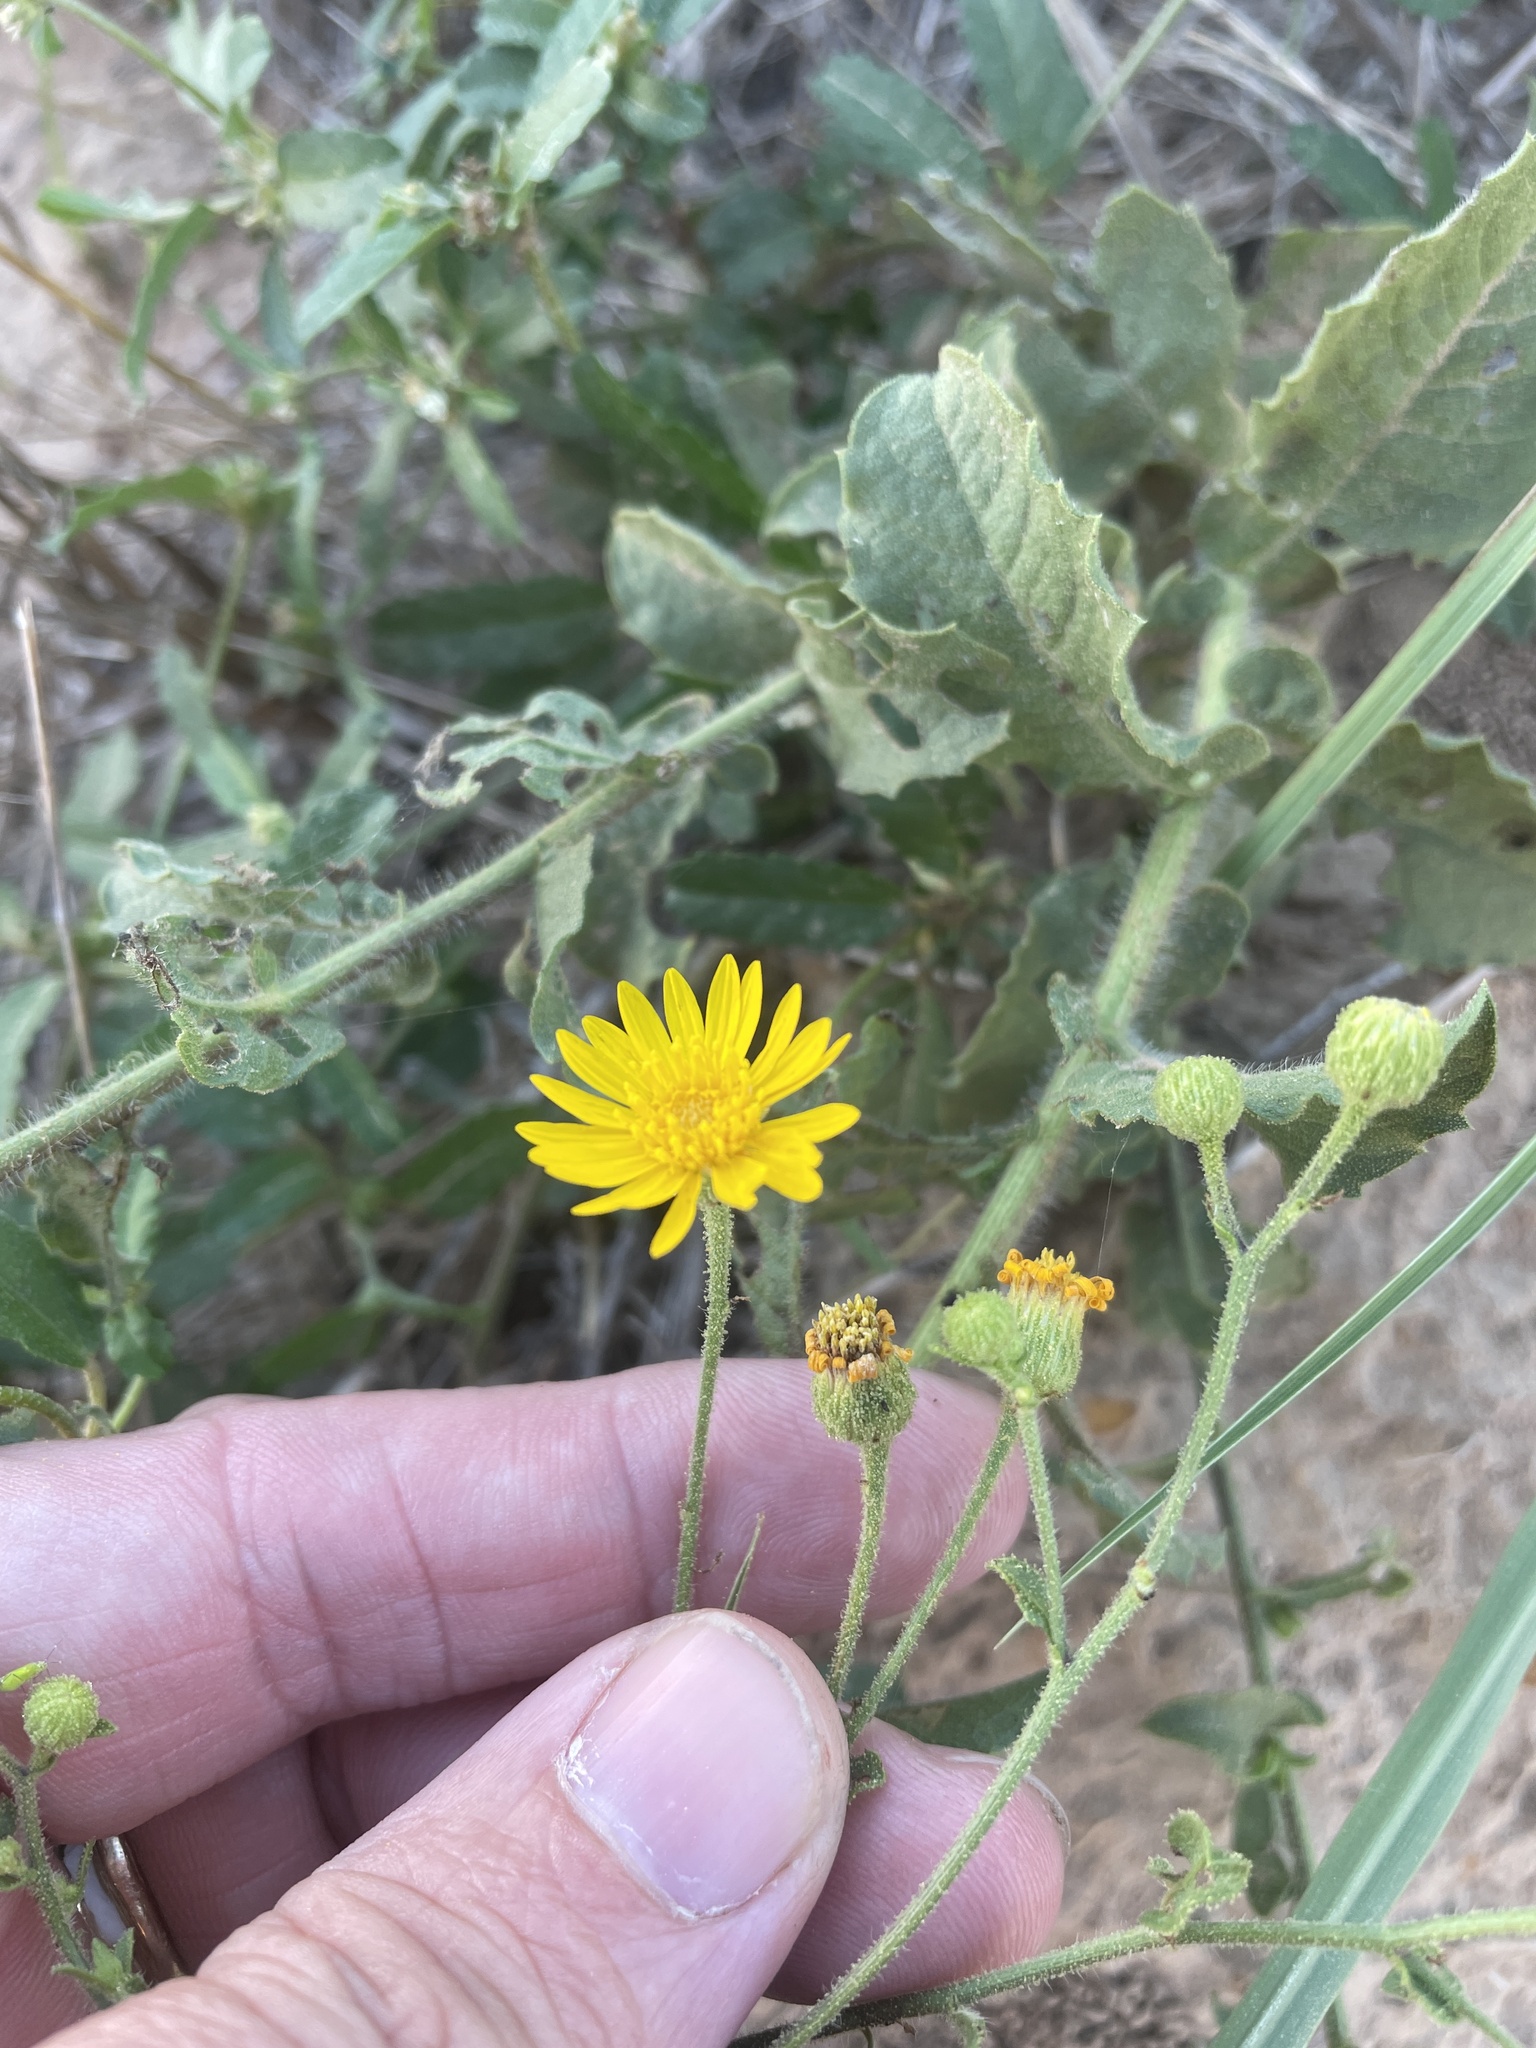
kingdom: Plantae
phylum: Tracheophyta
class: Magnoliopsida
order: Asterales
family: Asteraceae
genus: Heterotheca
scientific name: Heterotheca subaxillaris
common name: Camphorweed
